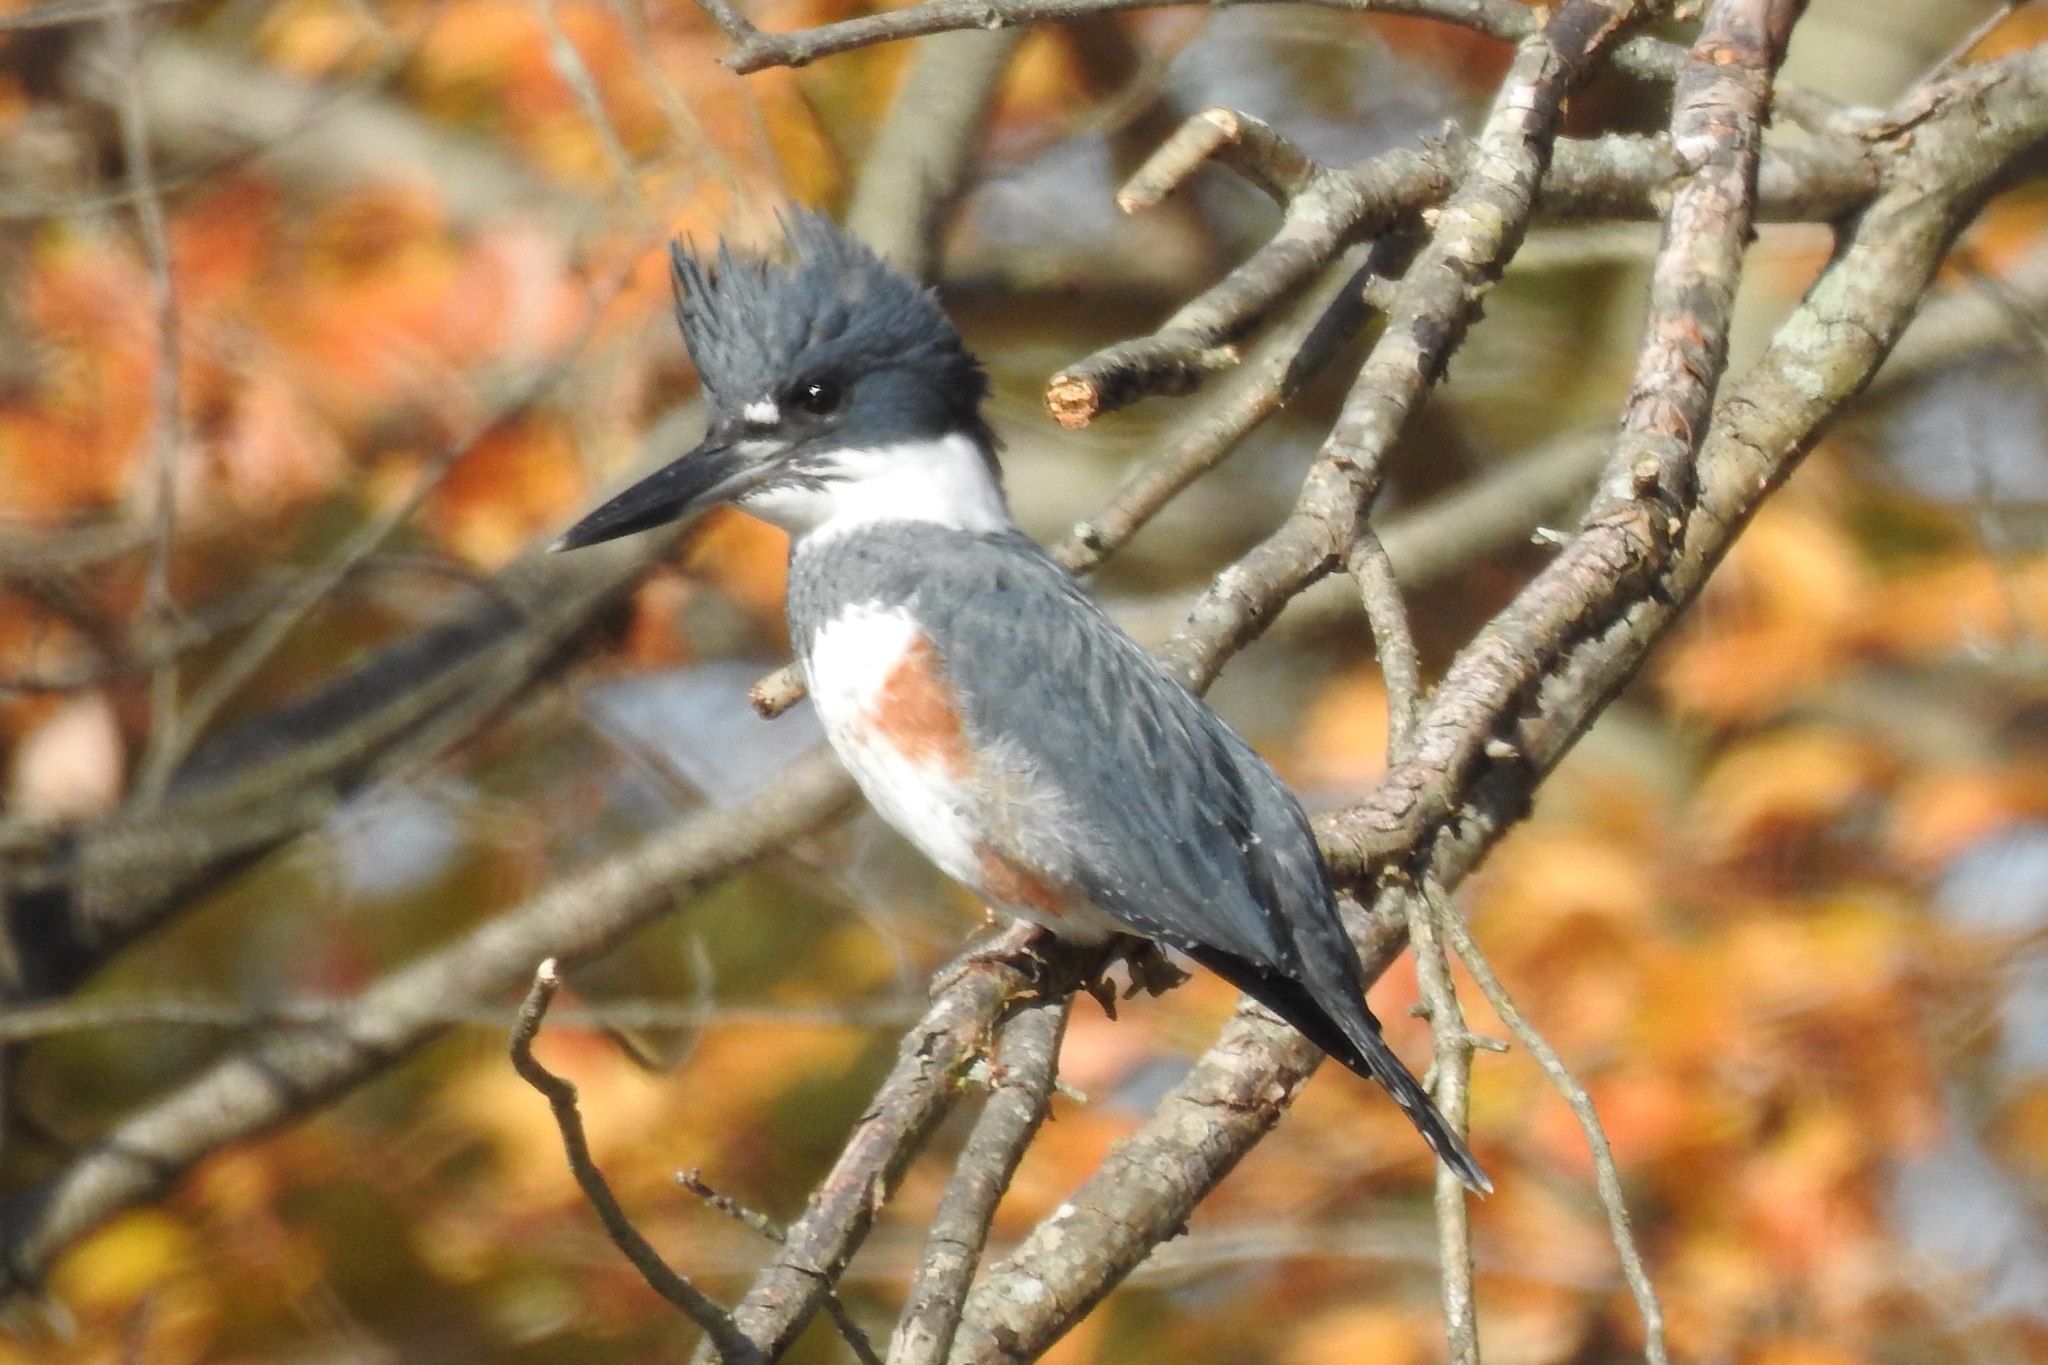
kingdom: Animalia
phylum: Chordata
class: Aves
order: Coraciiformes
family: Alcedinidae
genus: Megaceryle
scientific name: Megaceryle alcyon
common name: Belted kingfisher
